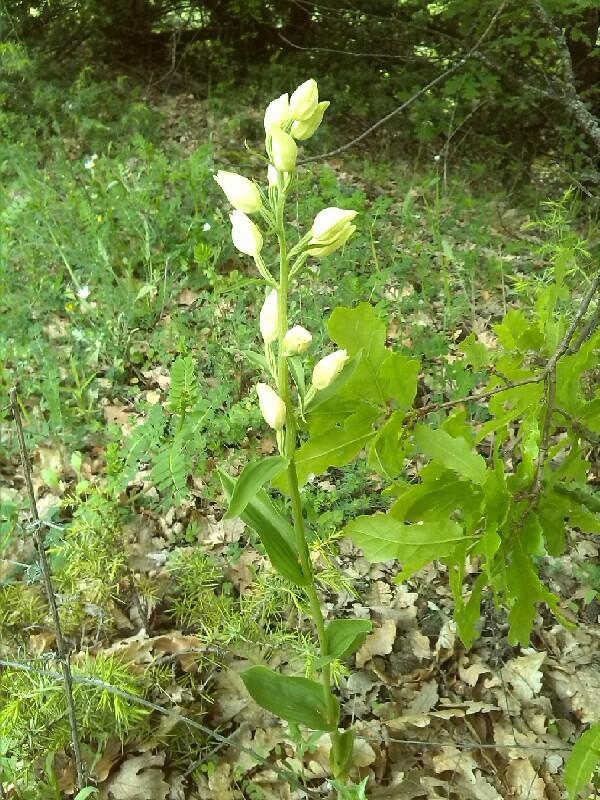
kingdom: Plantae
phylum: Tracheophyta
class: Liliopsida
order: Asparagales
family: Orchidaceae
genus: Cephalanthera
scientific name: Cephalanthera damasonium
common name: White helleborine
